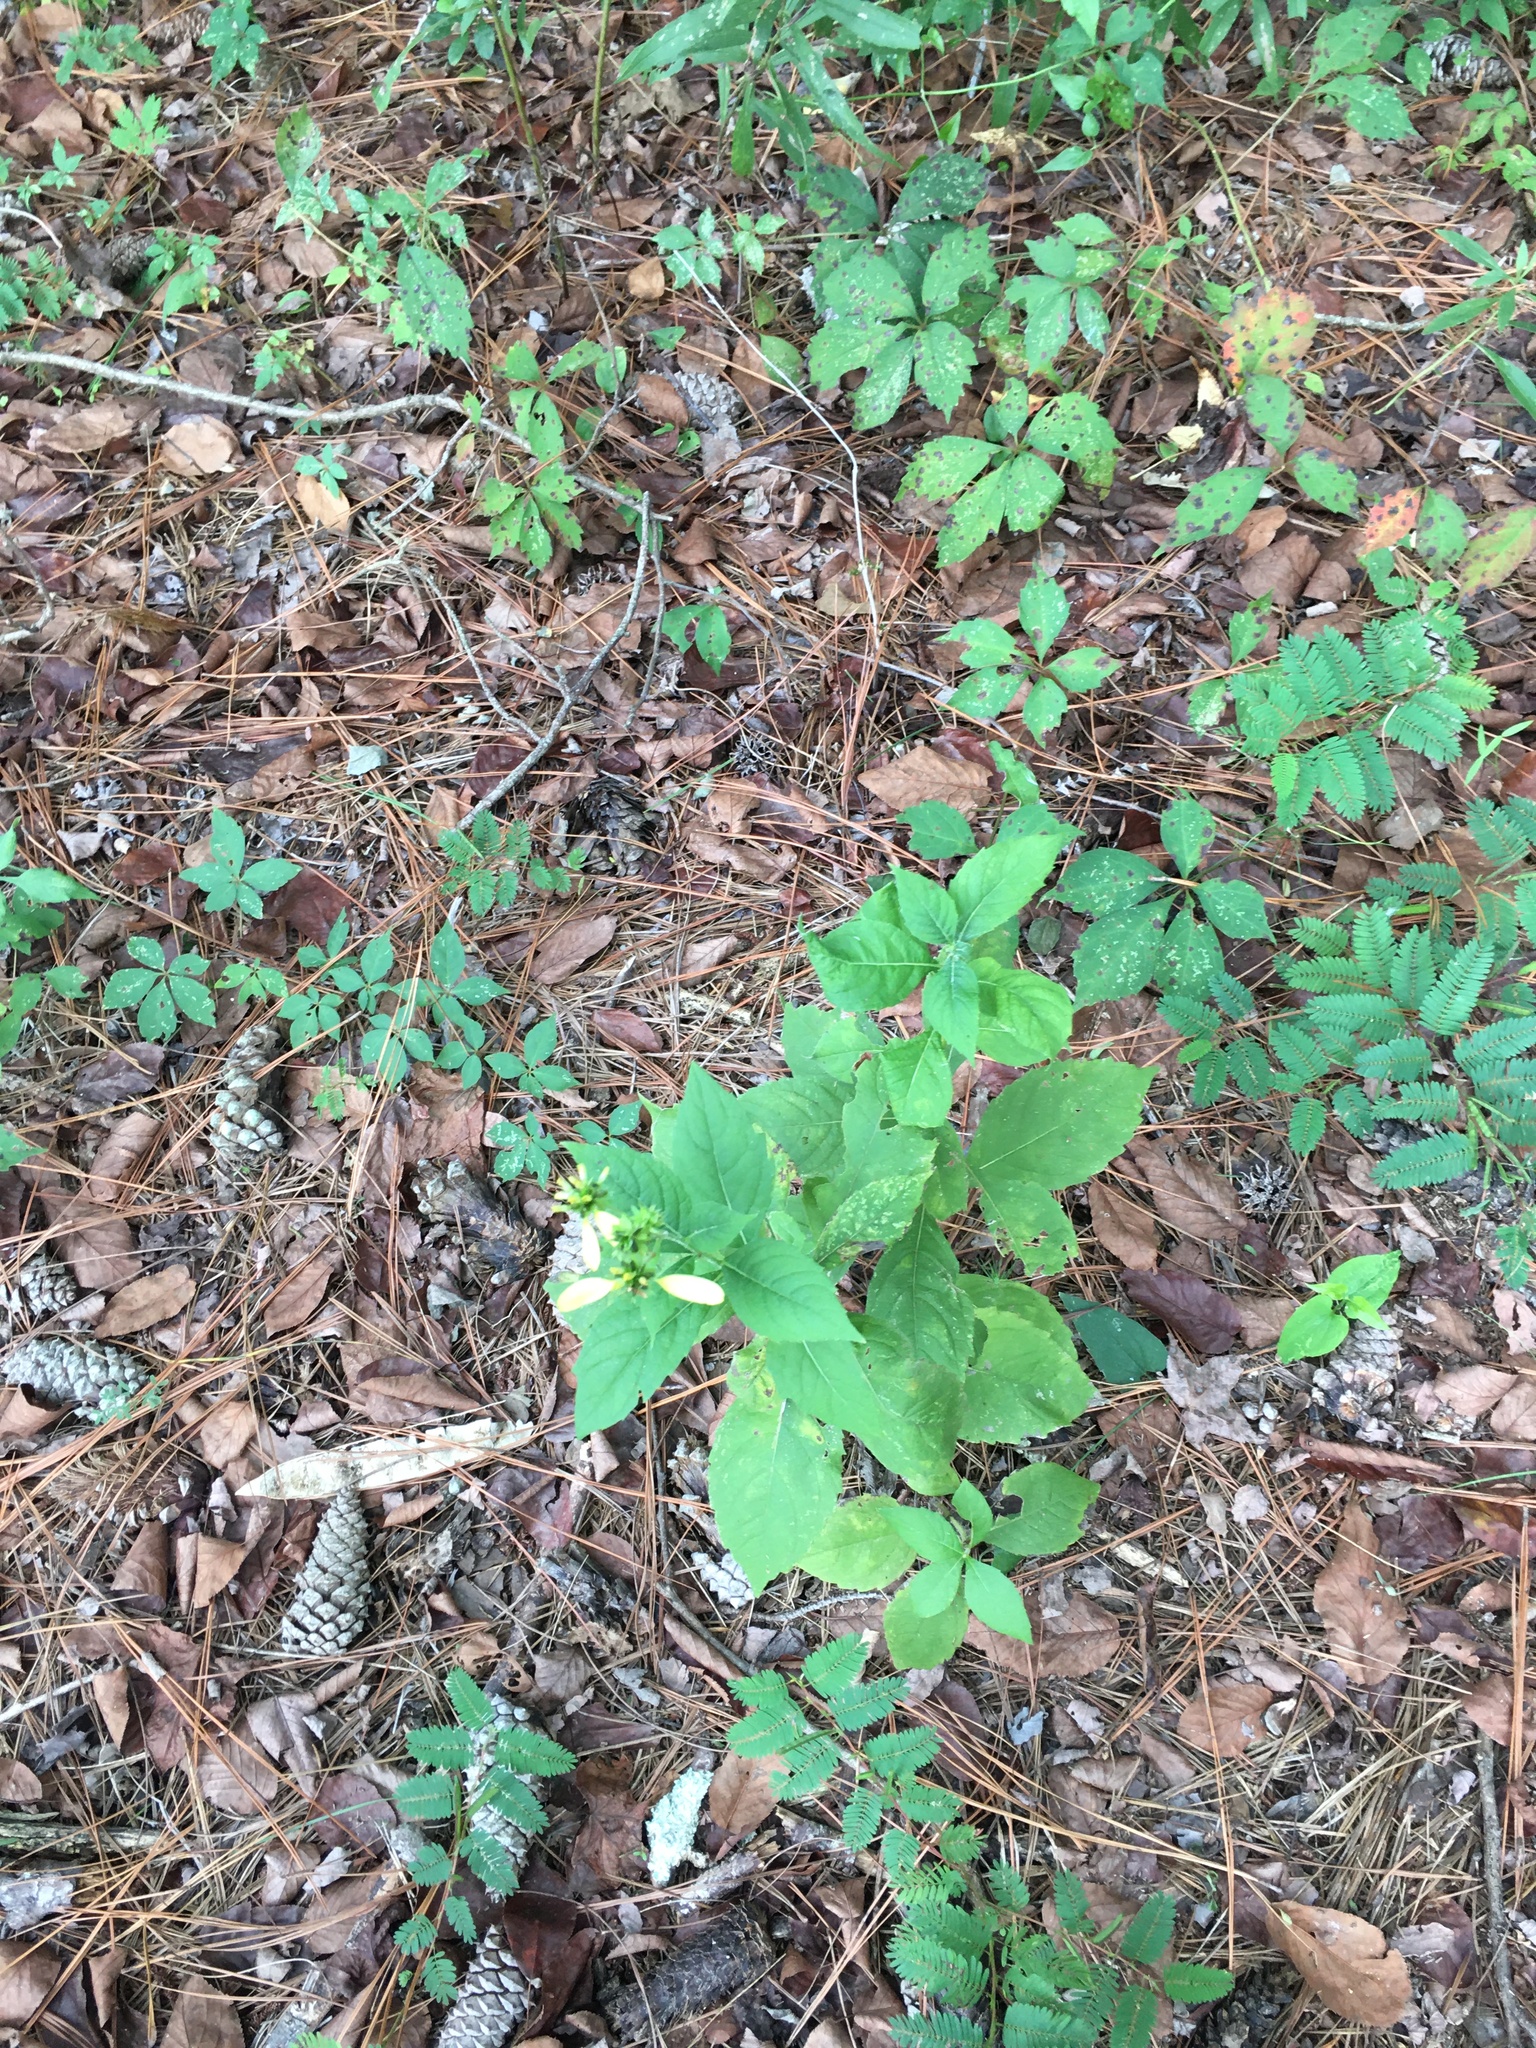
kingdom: Plantae
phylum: Tracheophyta
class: Magnoliopsida
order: Asterales
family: Asteraceae
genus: Verbesina
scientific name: Verbesina alternifolia
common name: Wingstem
